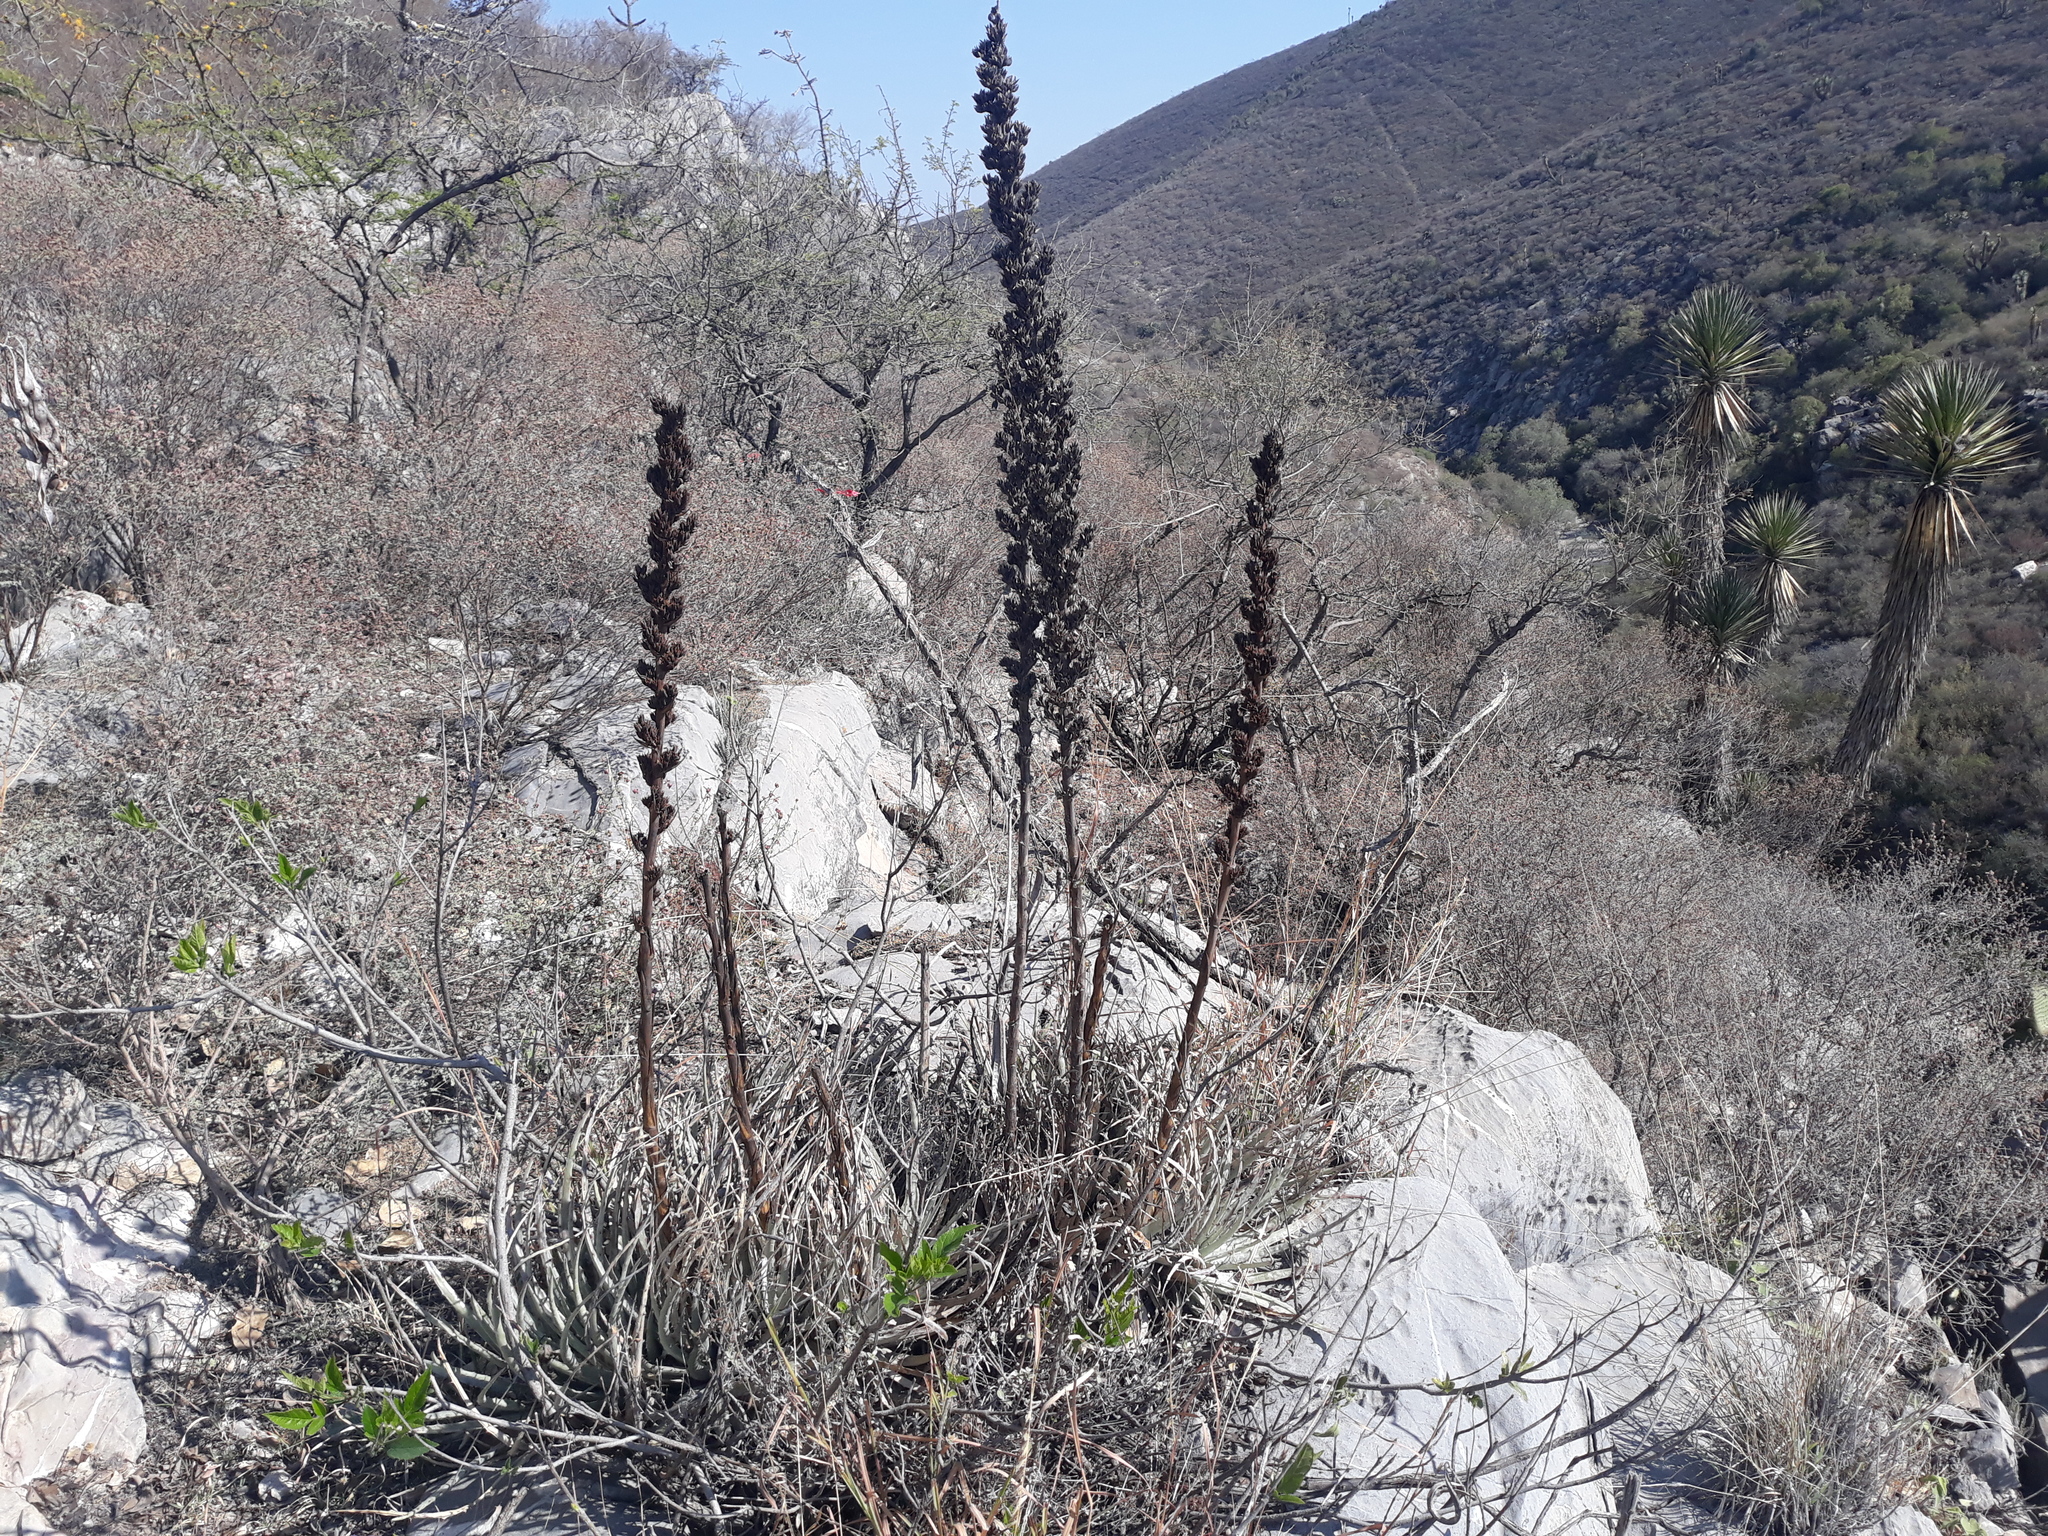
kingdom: Plantae
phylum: Tracheophyta
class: Liliopsida
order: Poales
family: Bromeliaceae
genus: Hechtia
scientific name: Hechtia podantha
